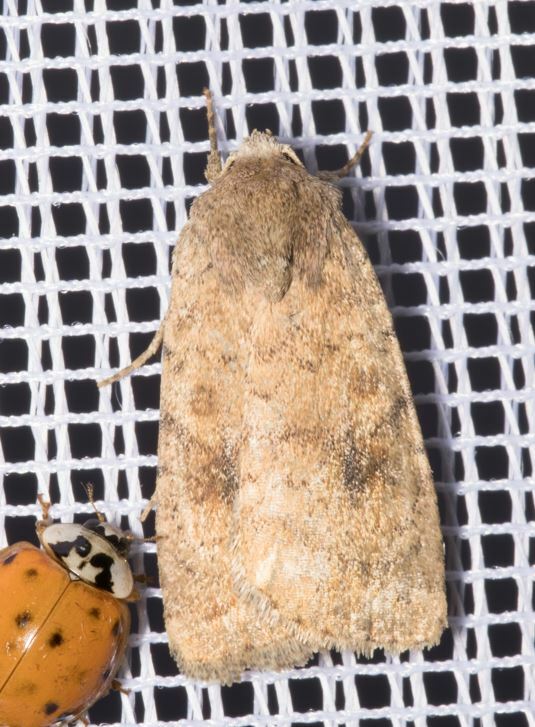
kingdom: Animalia
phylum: Arthropoda
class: Insecta
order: Lepidoptera
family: Noctuidae
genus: Caradrina
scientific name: Caradrina morpheus
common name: Mottled rustic
